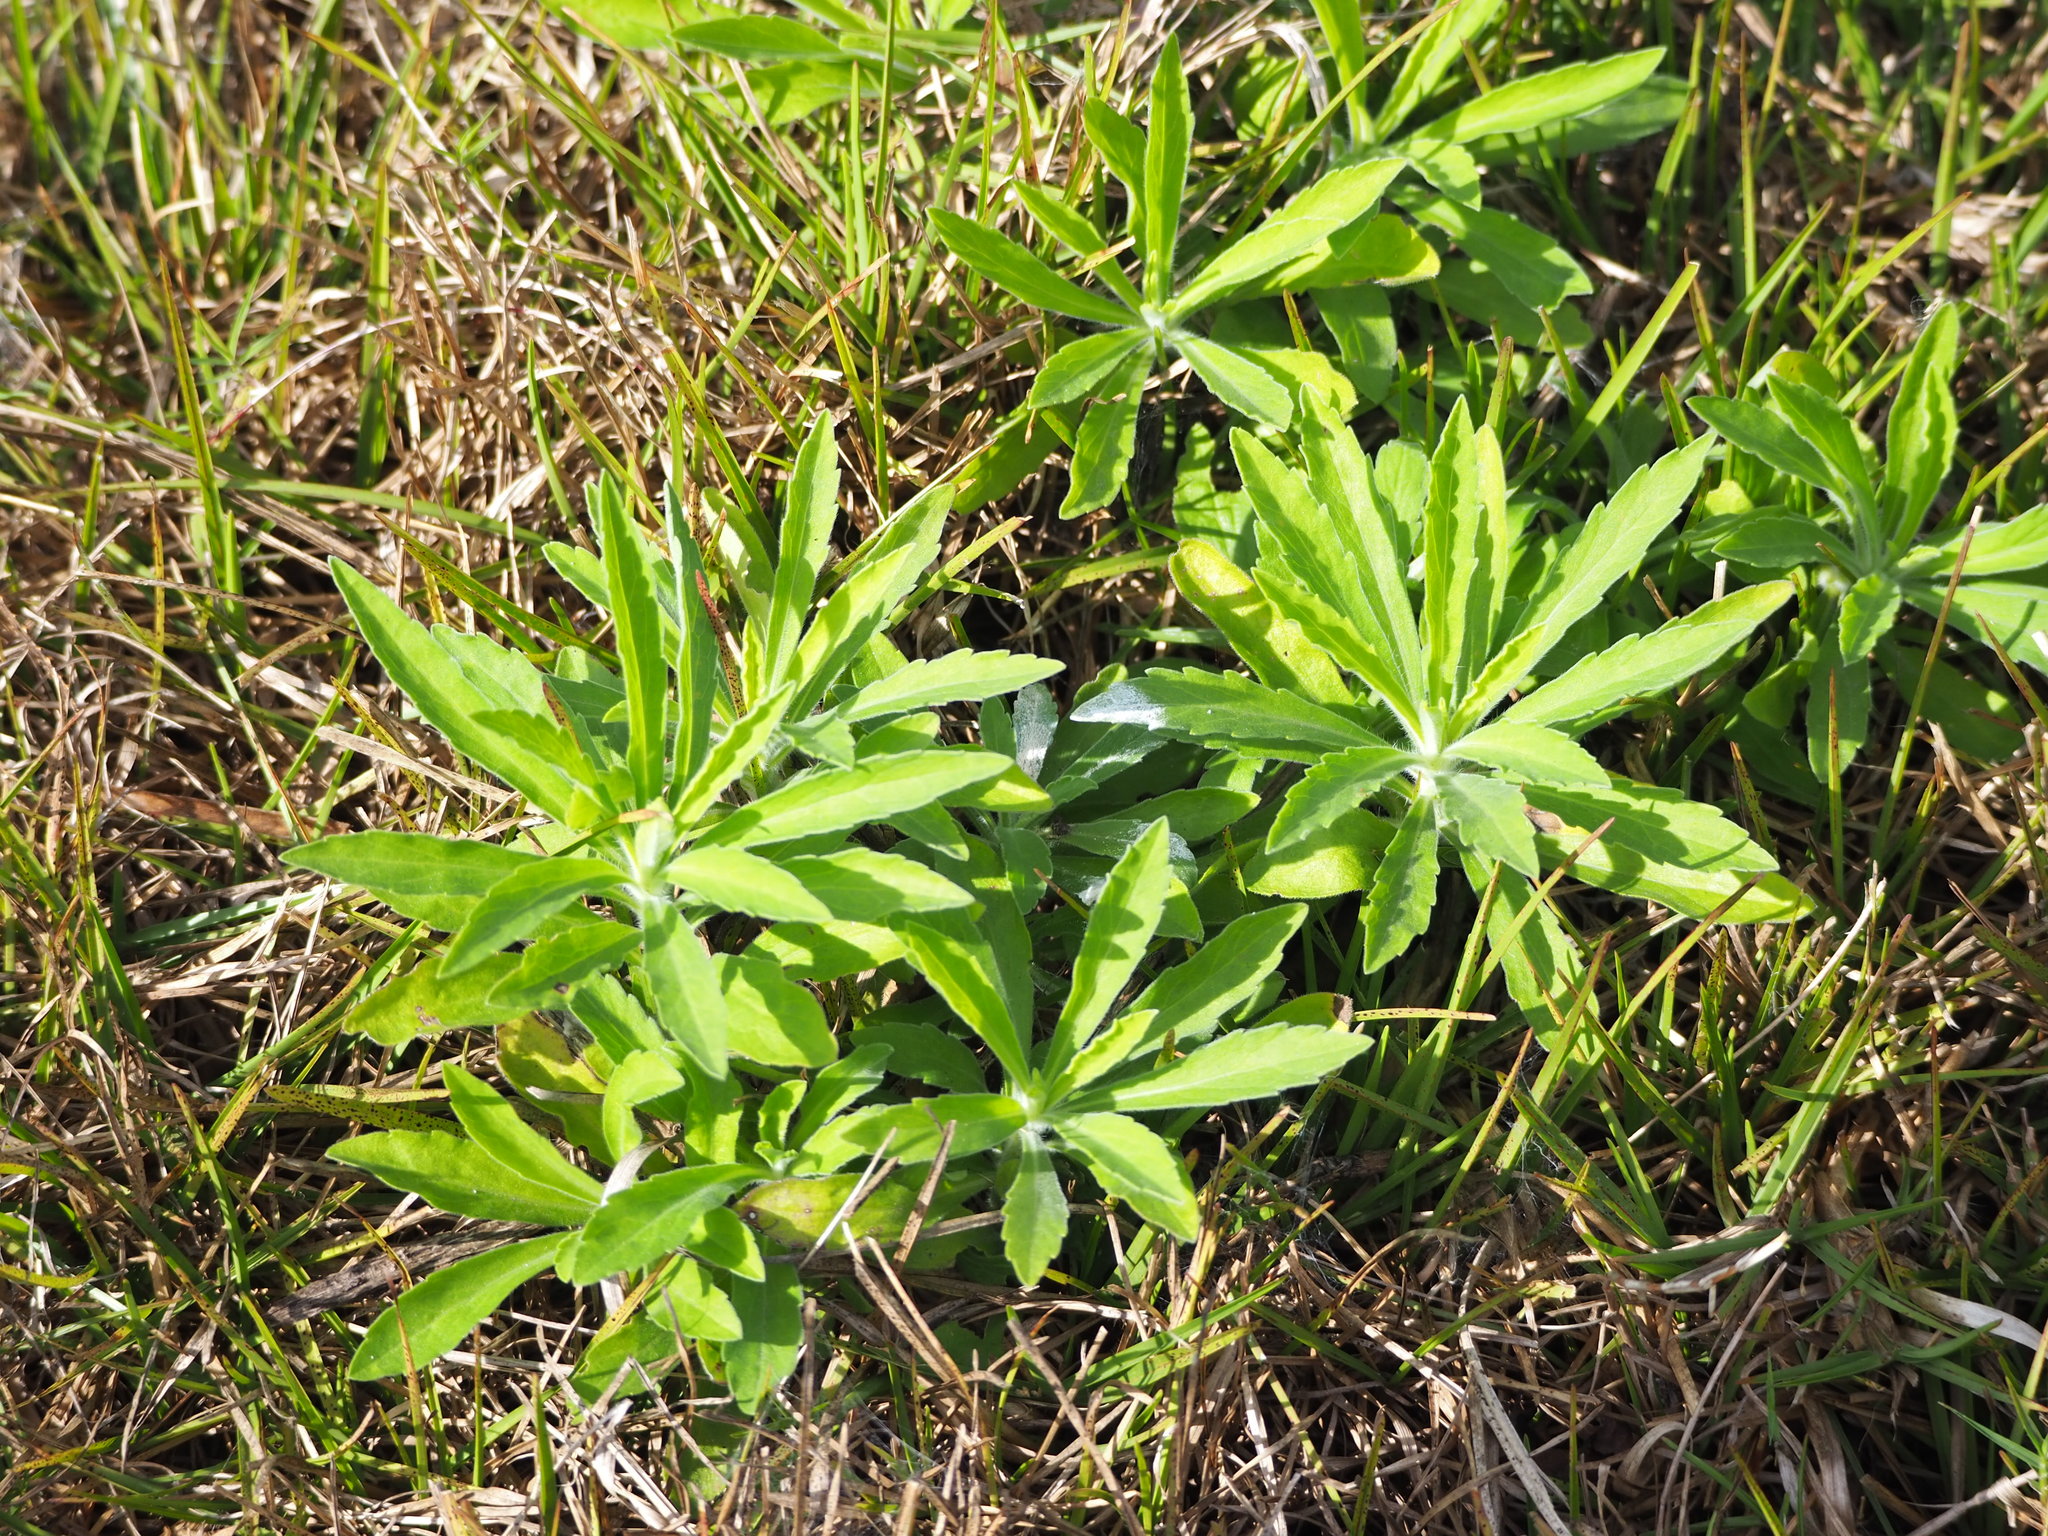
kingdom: Plantae
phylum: Tracheophyta
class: Magnoliopsida
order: Asterales
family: Asteraceae
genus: Erigeron
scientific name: Erigeron sumatrensis
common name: Daisy
